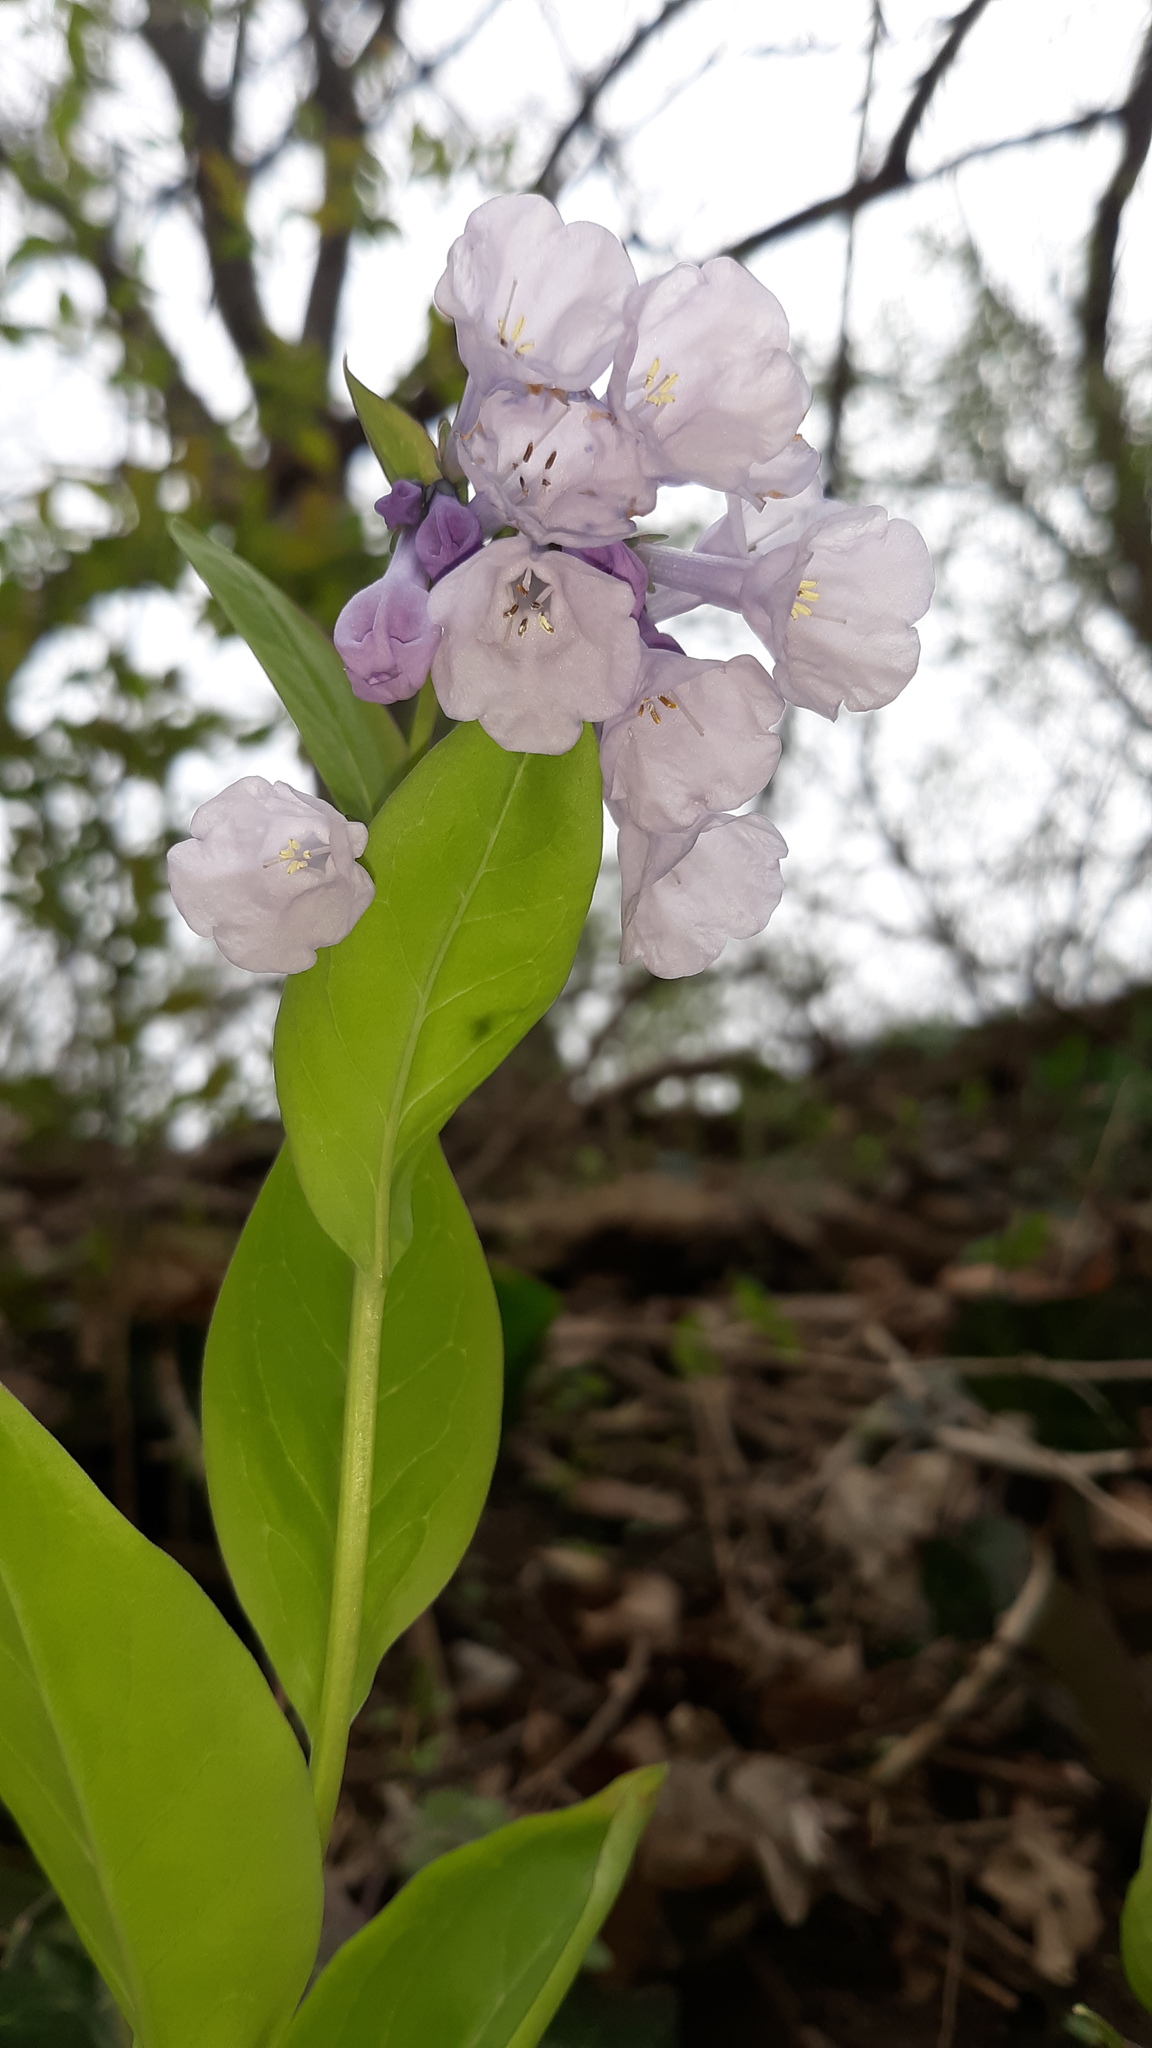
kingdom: Plantae
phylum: Tracheophyta
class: Magnoliopsida
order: Boraginales
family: Boraginaceae
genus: Mertensia
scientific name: Mertensia virginica
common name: Virginia bluebells
